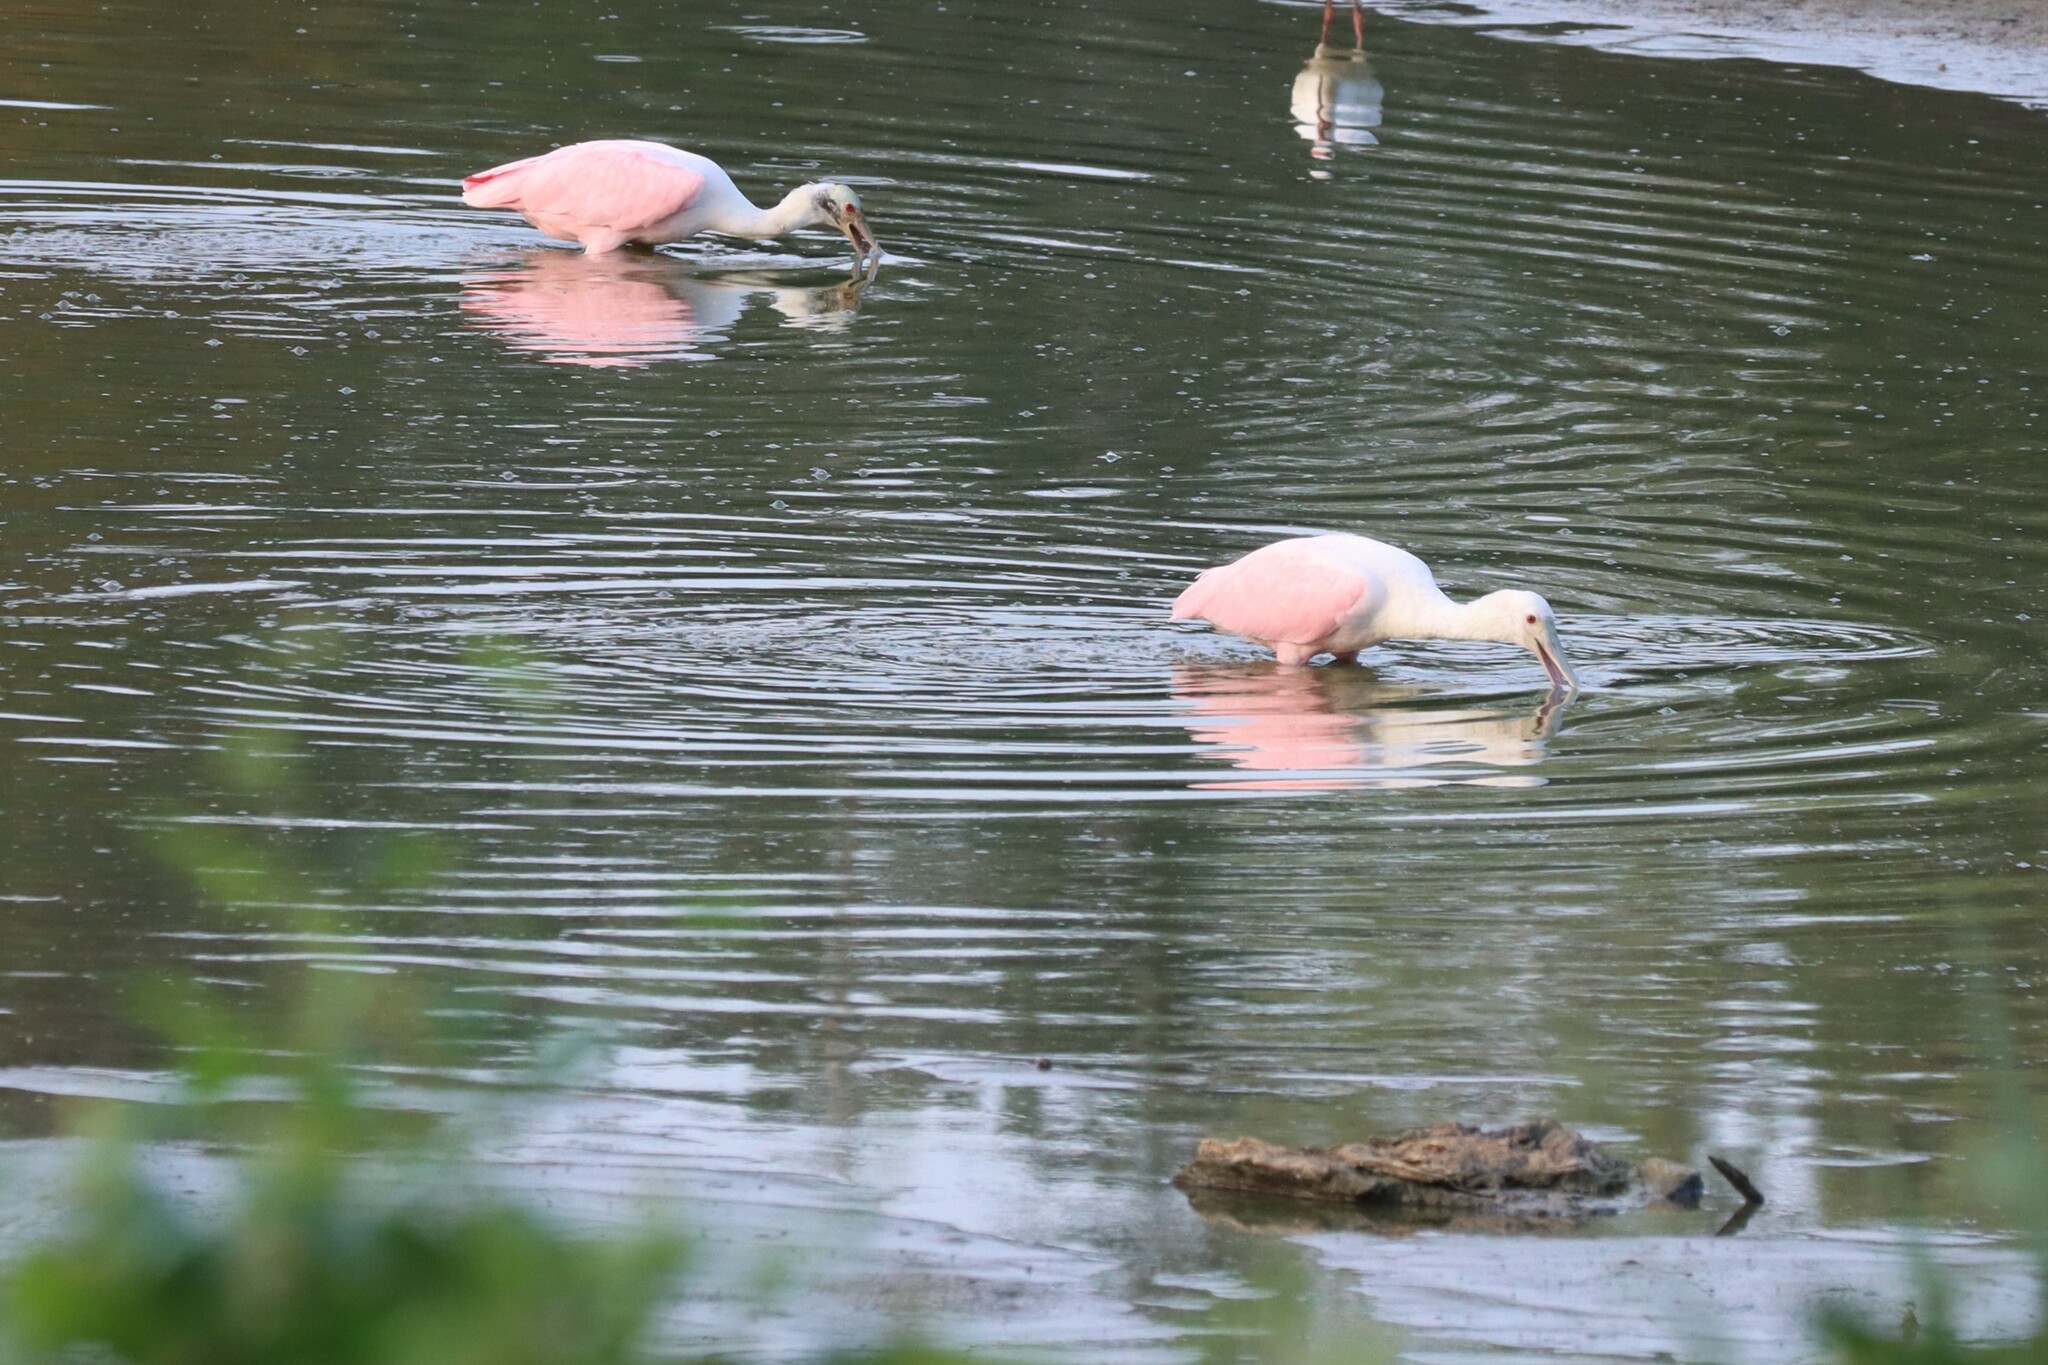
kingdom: Animalia
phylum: Chordata
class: Aves
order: Pelecaniformes
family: Threskiornithidae
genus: Platalea
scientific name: Platalea ajaja
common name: Roseate spoonbill
